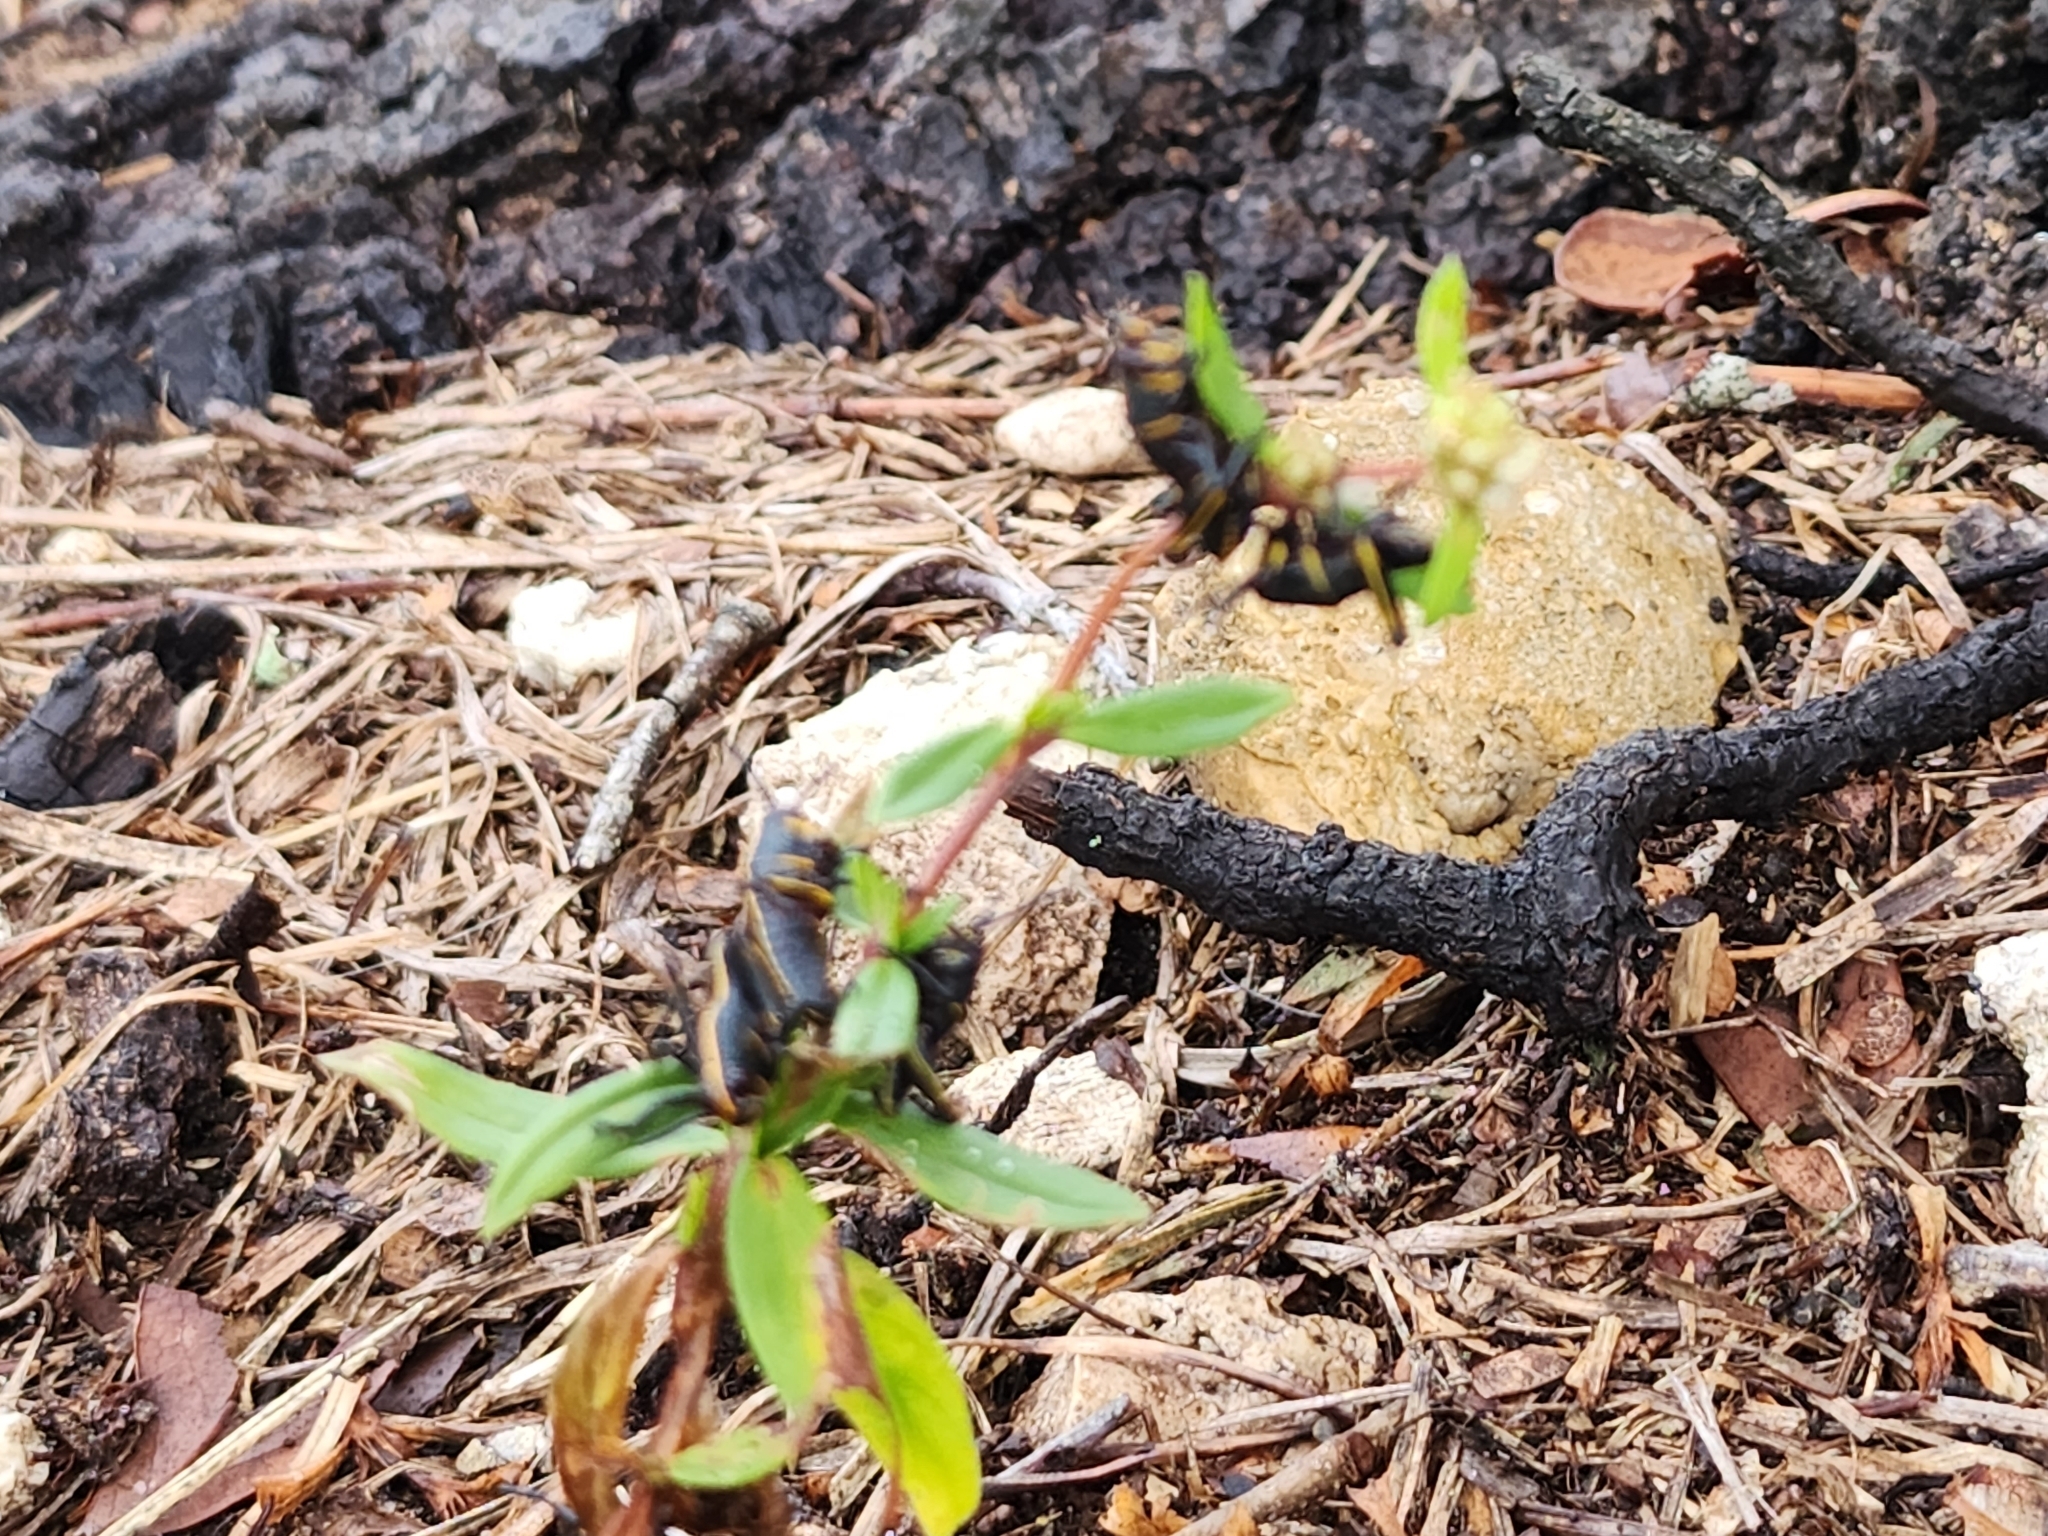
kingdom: Animalia
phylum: Arthropoda
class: Insecta
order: Orthoptera
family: Romaleidae
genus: Romalea
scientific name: Romalea microptera
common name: Eastern lubber grasshopper
